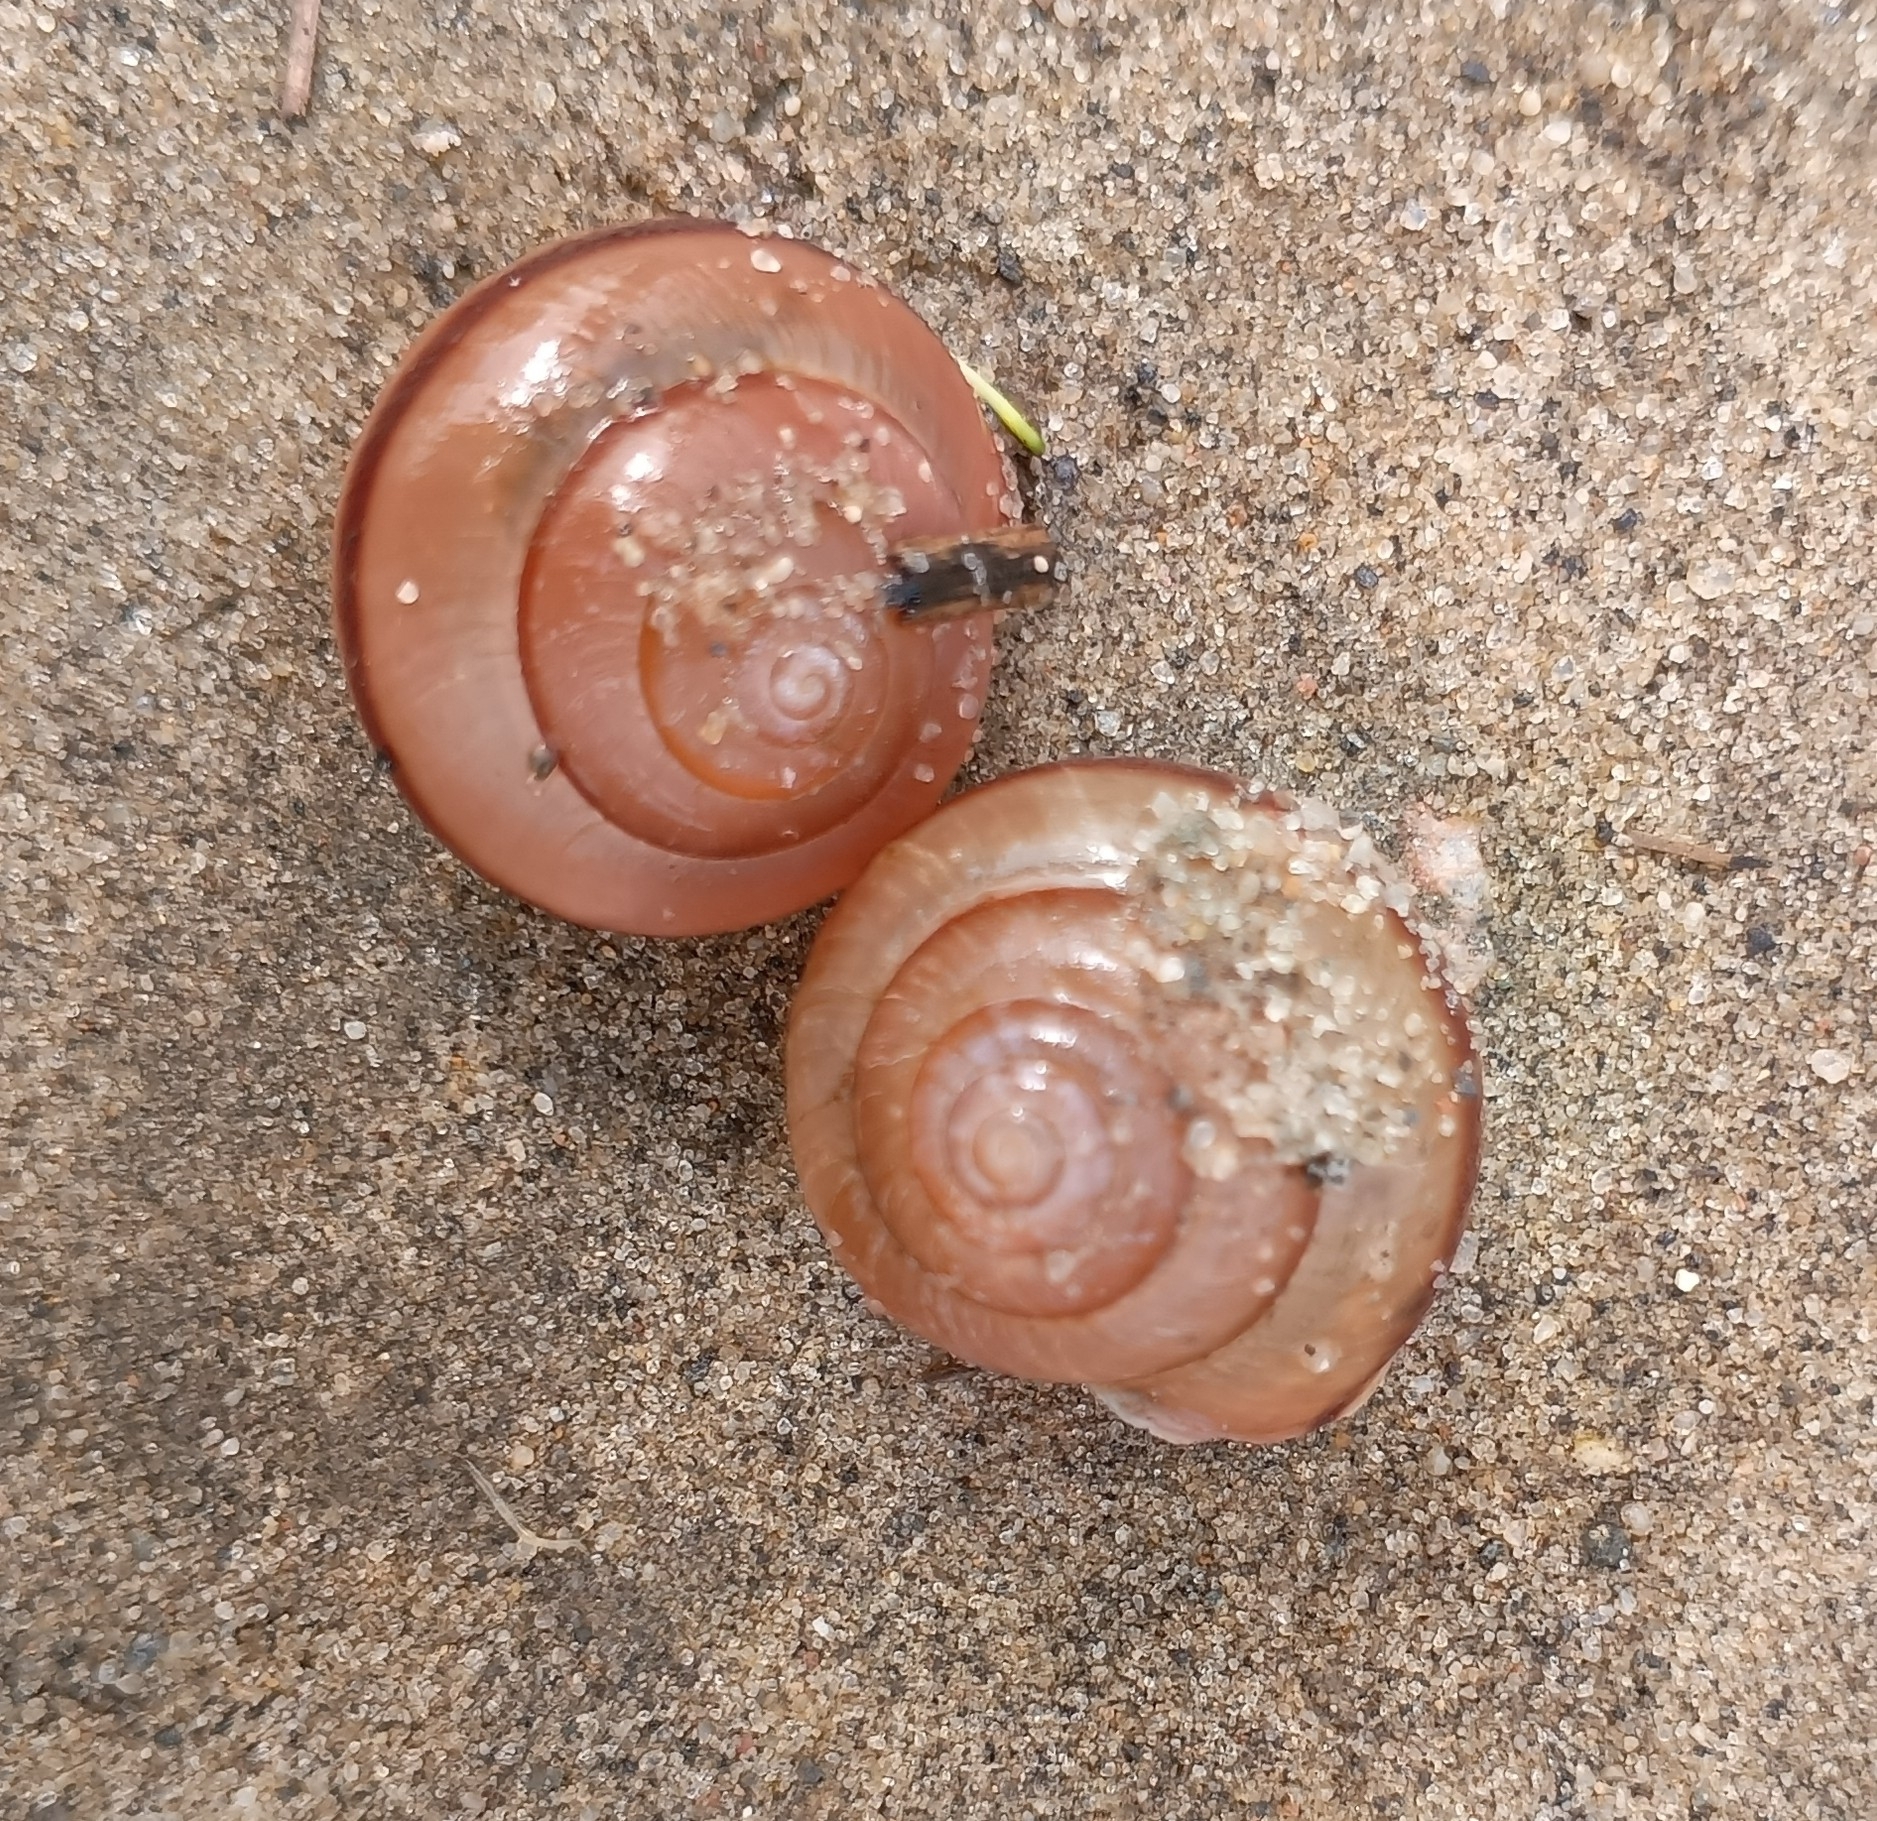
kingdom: Animalia
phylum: Mollusca
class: Gastropoda
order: Stylommatophora
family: Camaenidae
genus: Fruticicola
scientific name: Fruticicola fruticum
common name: Bush snail
